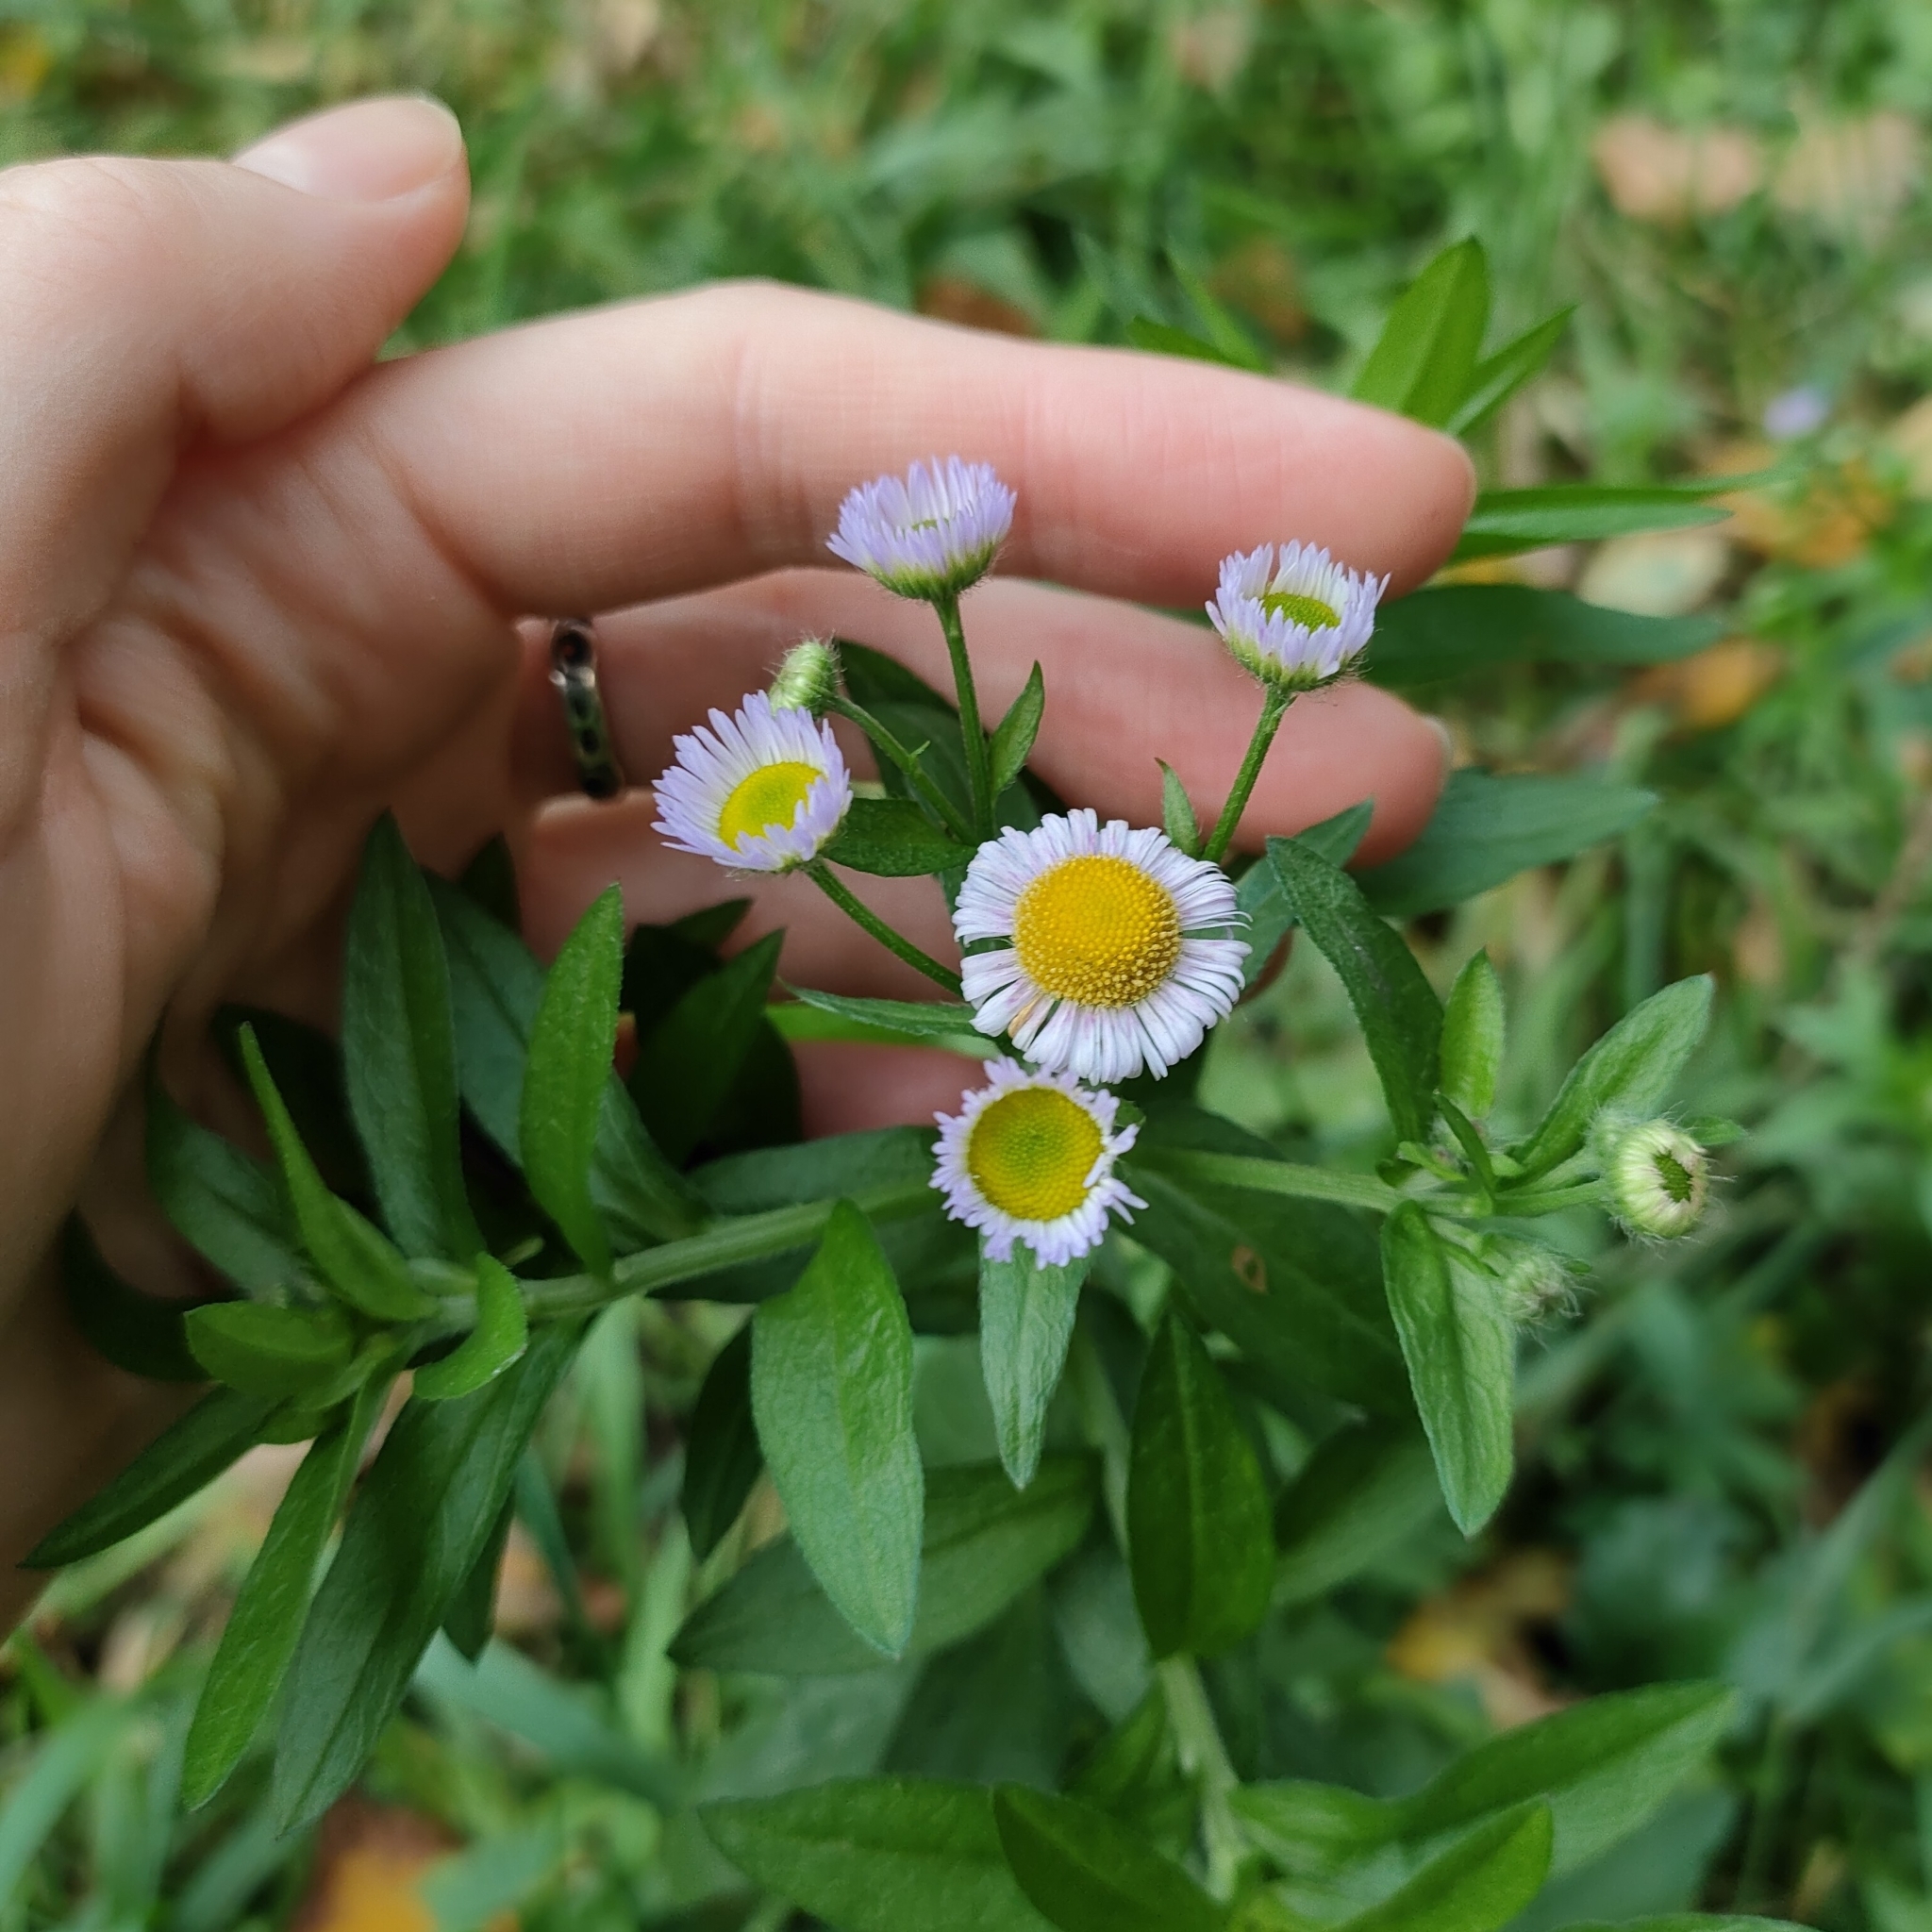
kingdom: Plantae
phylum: Tracheophyta
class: Magnoliopsida
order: Asterales
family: Asteraceae
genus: Erigeron
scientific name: Erigeron annuus
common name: Tall fleabane
